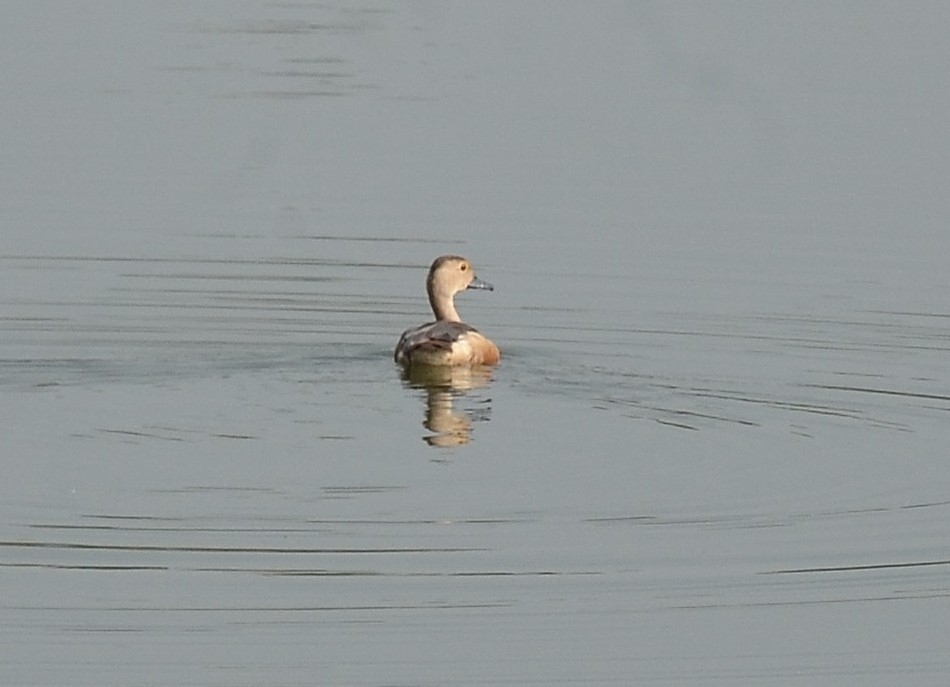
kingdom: Animalia
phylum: Chordata
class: Aves
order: Anseriformes
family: Anatidae
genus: Dendrocygna
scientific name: Dendrocygna javanica
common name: Lesser whistling-duck
